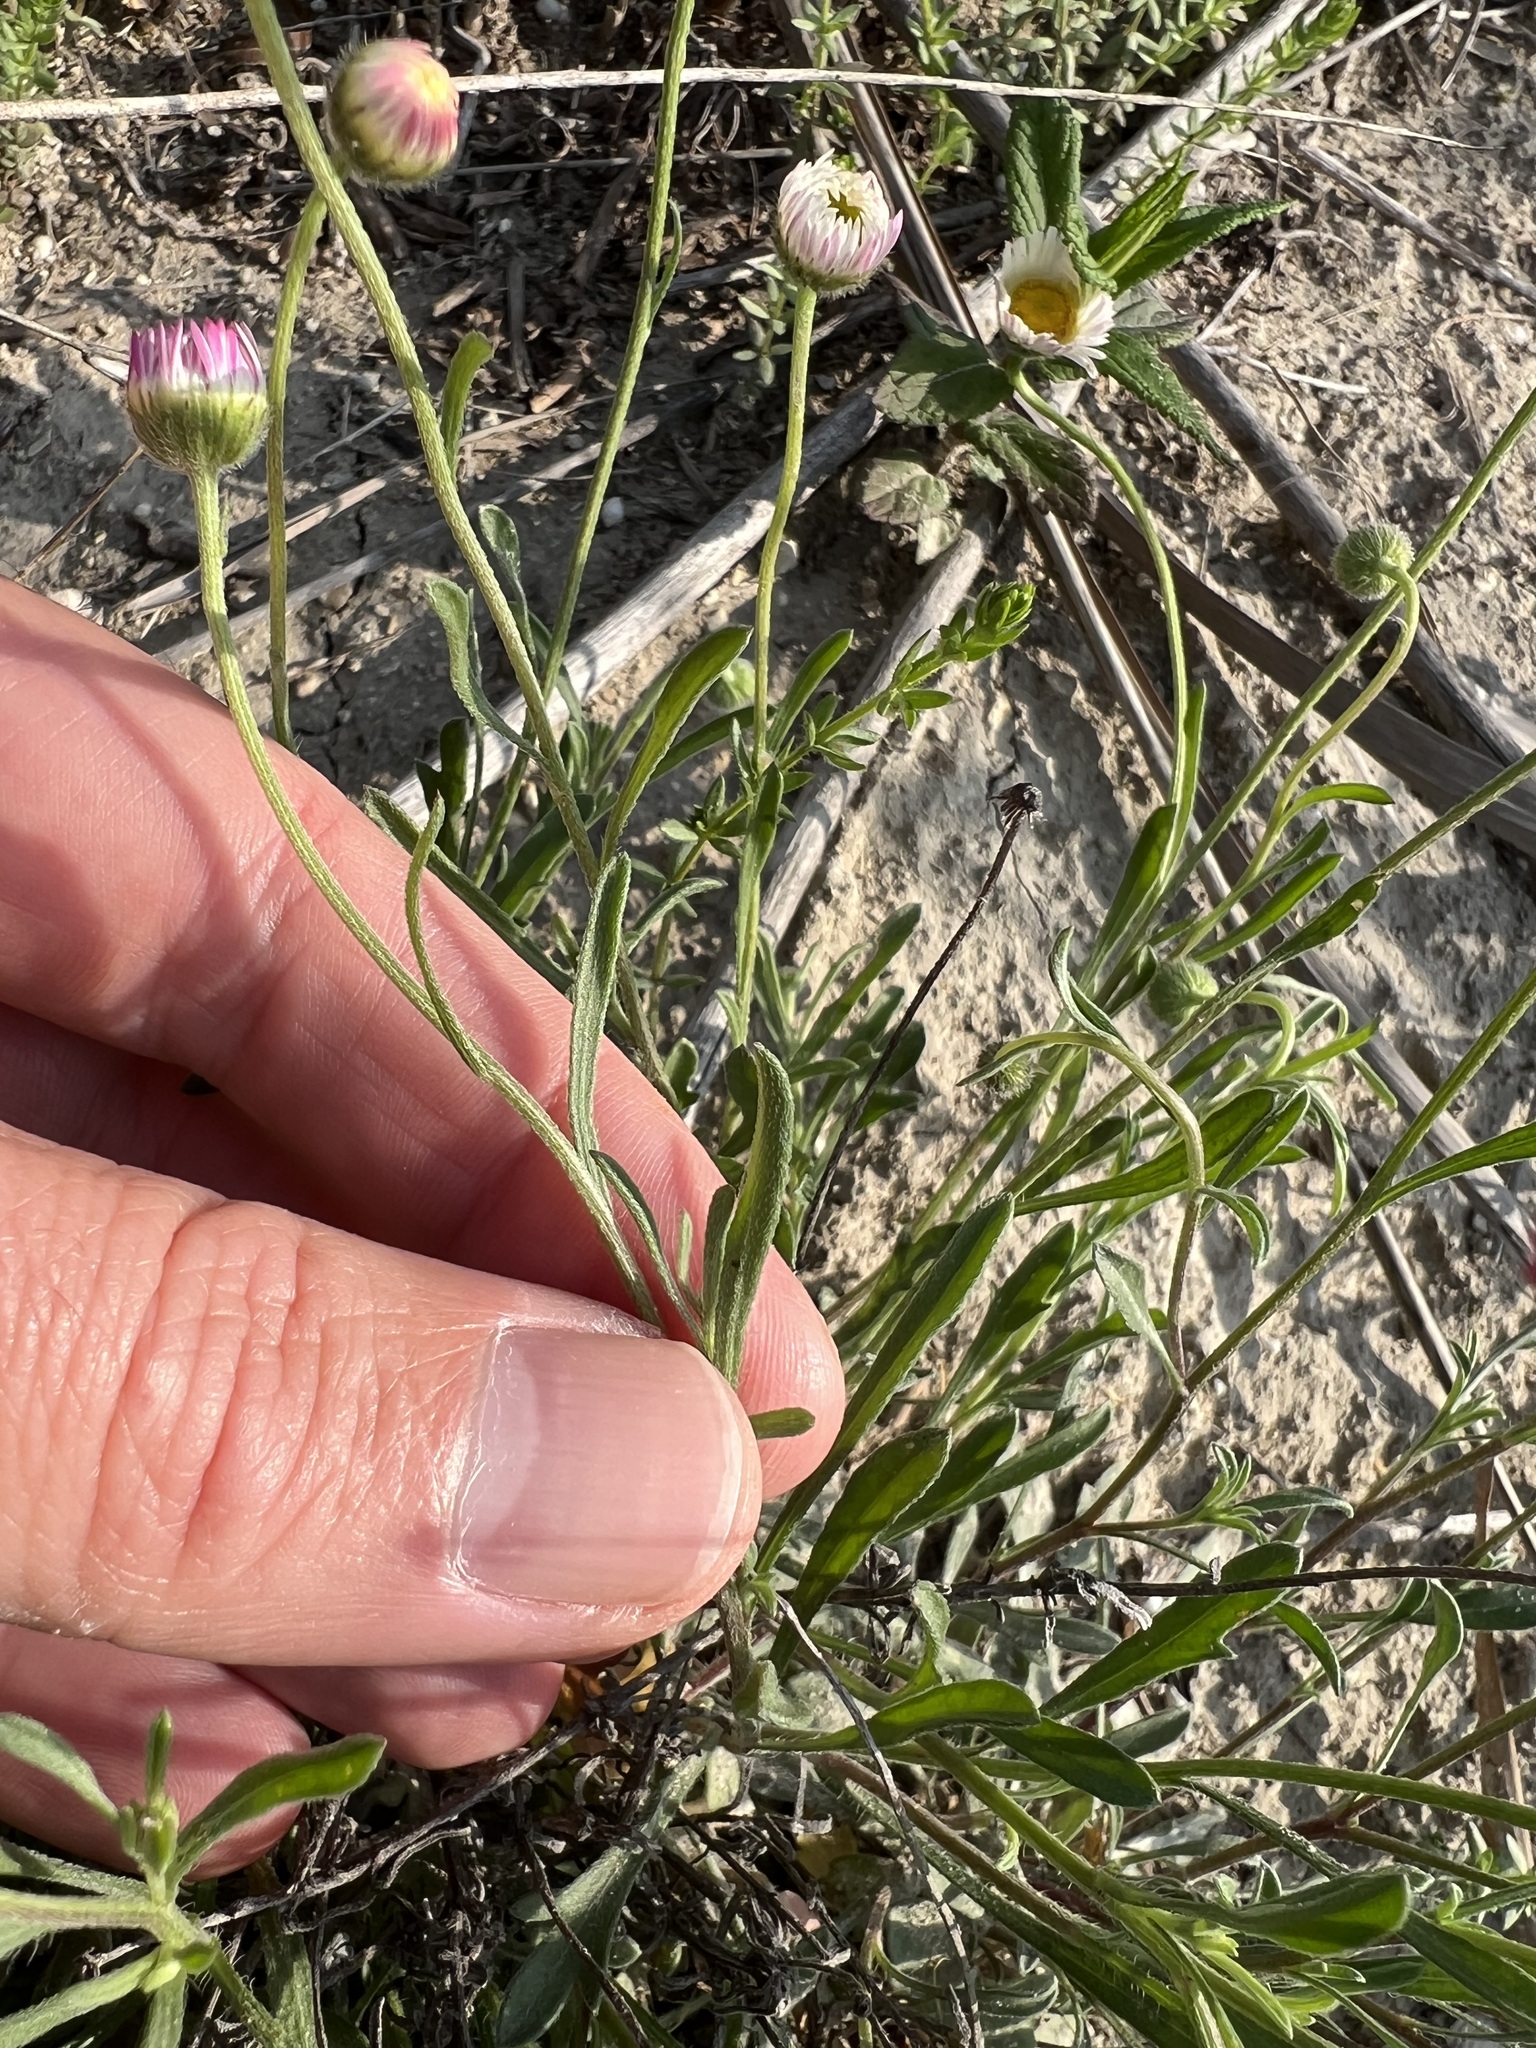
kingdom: Plantae
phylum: Tracheophyta
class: Magnoliopsida
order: Asterales
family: Asteraceae
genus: Erigeron
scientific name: Erigeron modestus
